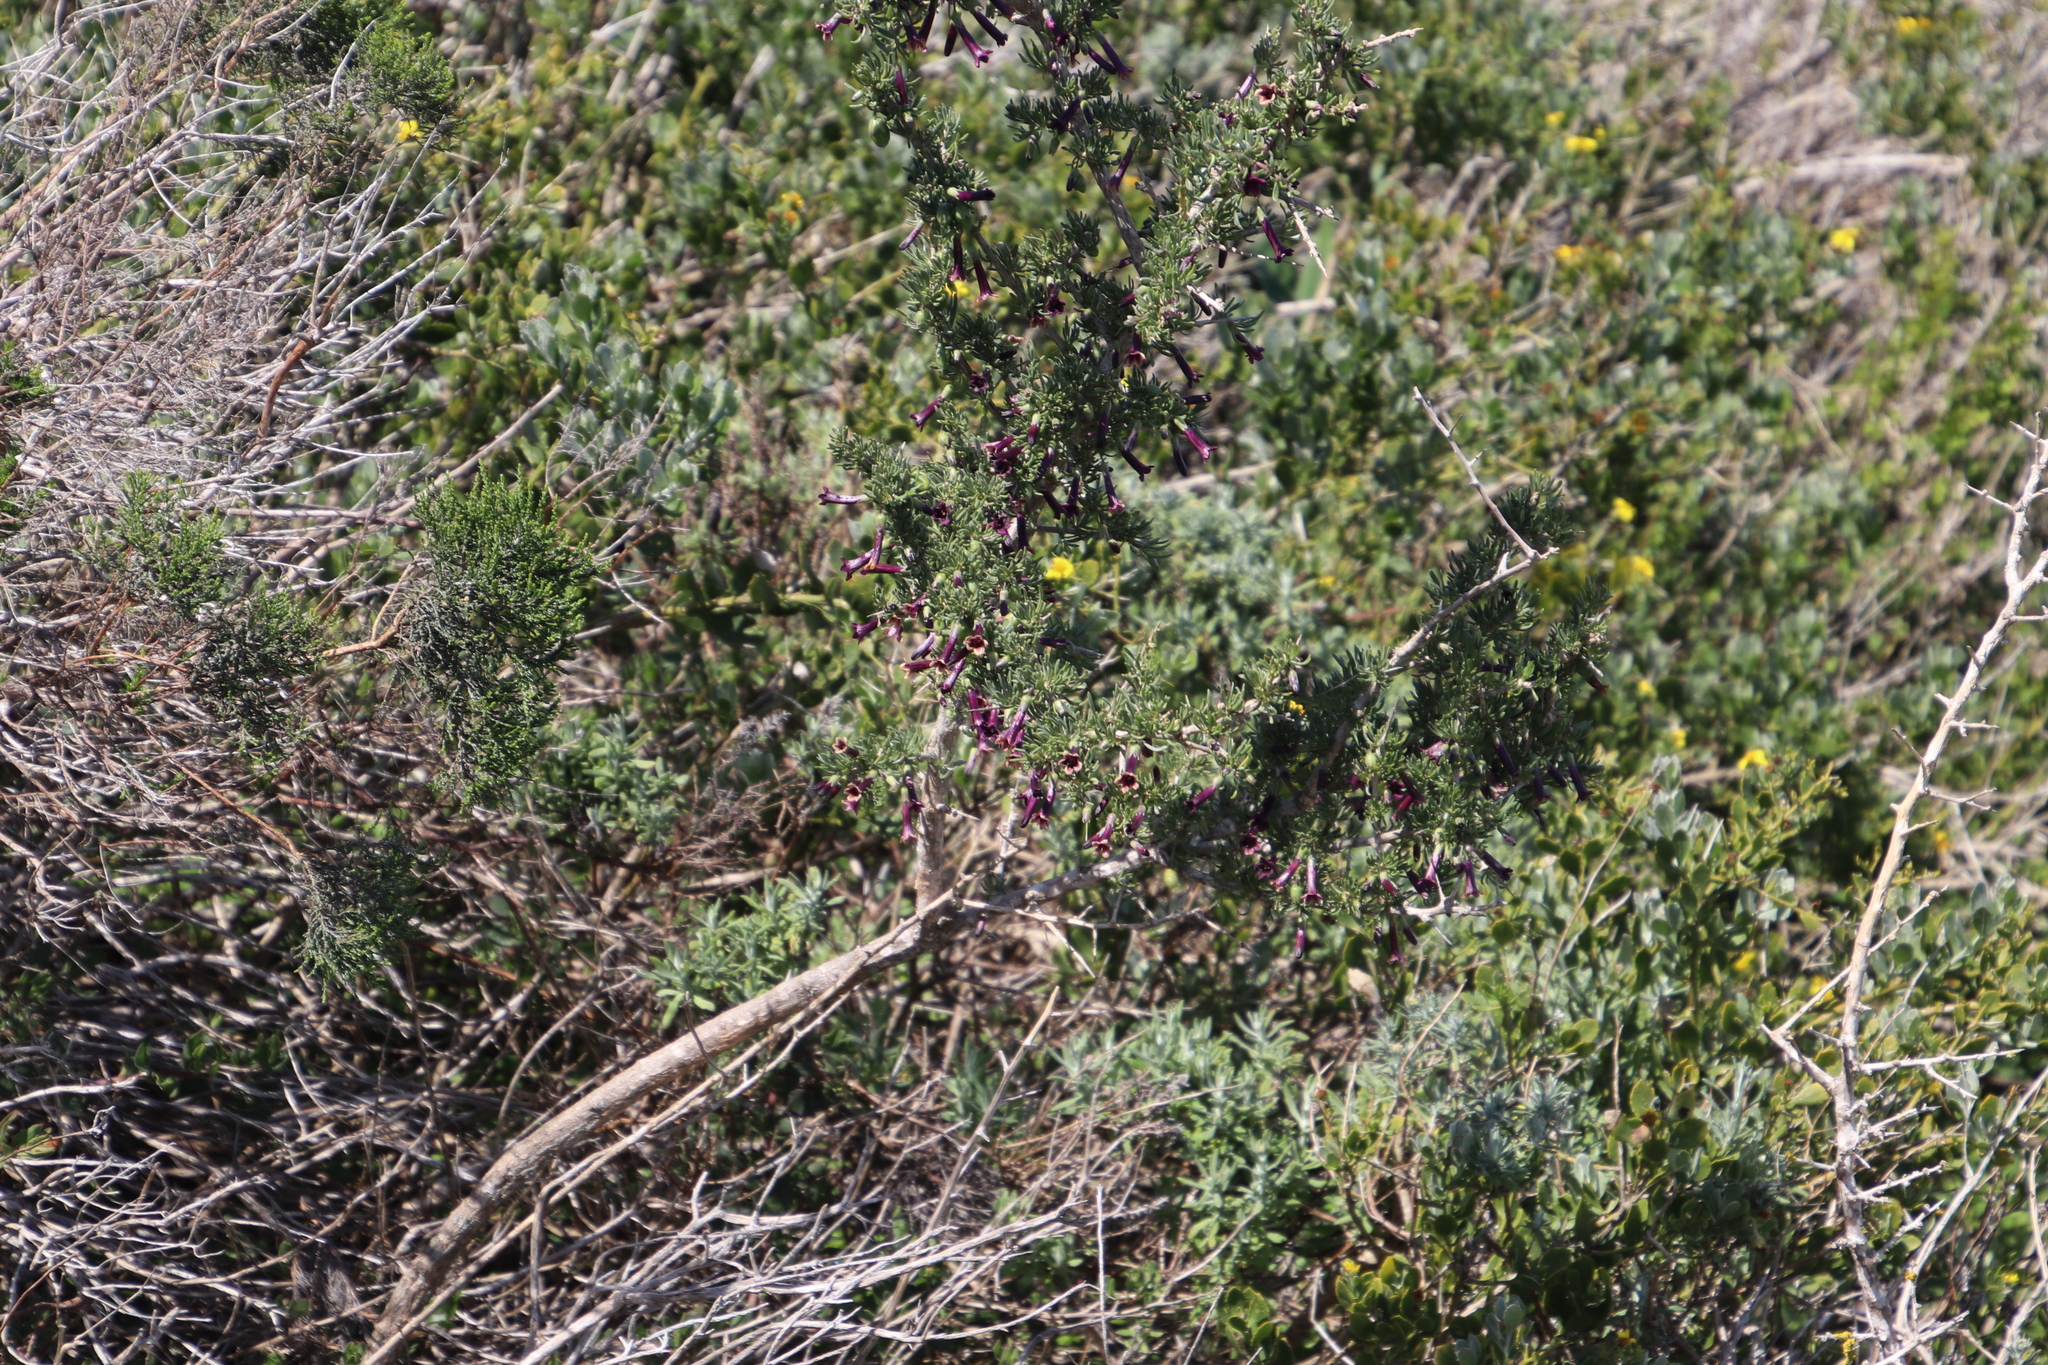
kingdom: Plantae
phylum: Tracheophyta
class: Magnoliopsida
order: Solanales
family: Solanaceae
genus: Lycium
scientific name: Lycium afrum
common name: Kaffir boxthorn
